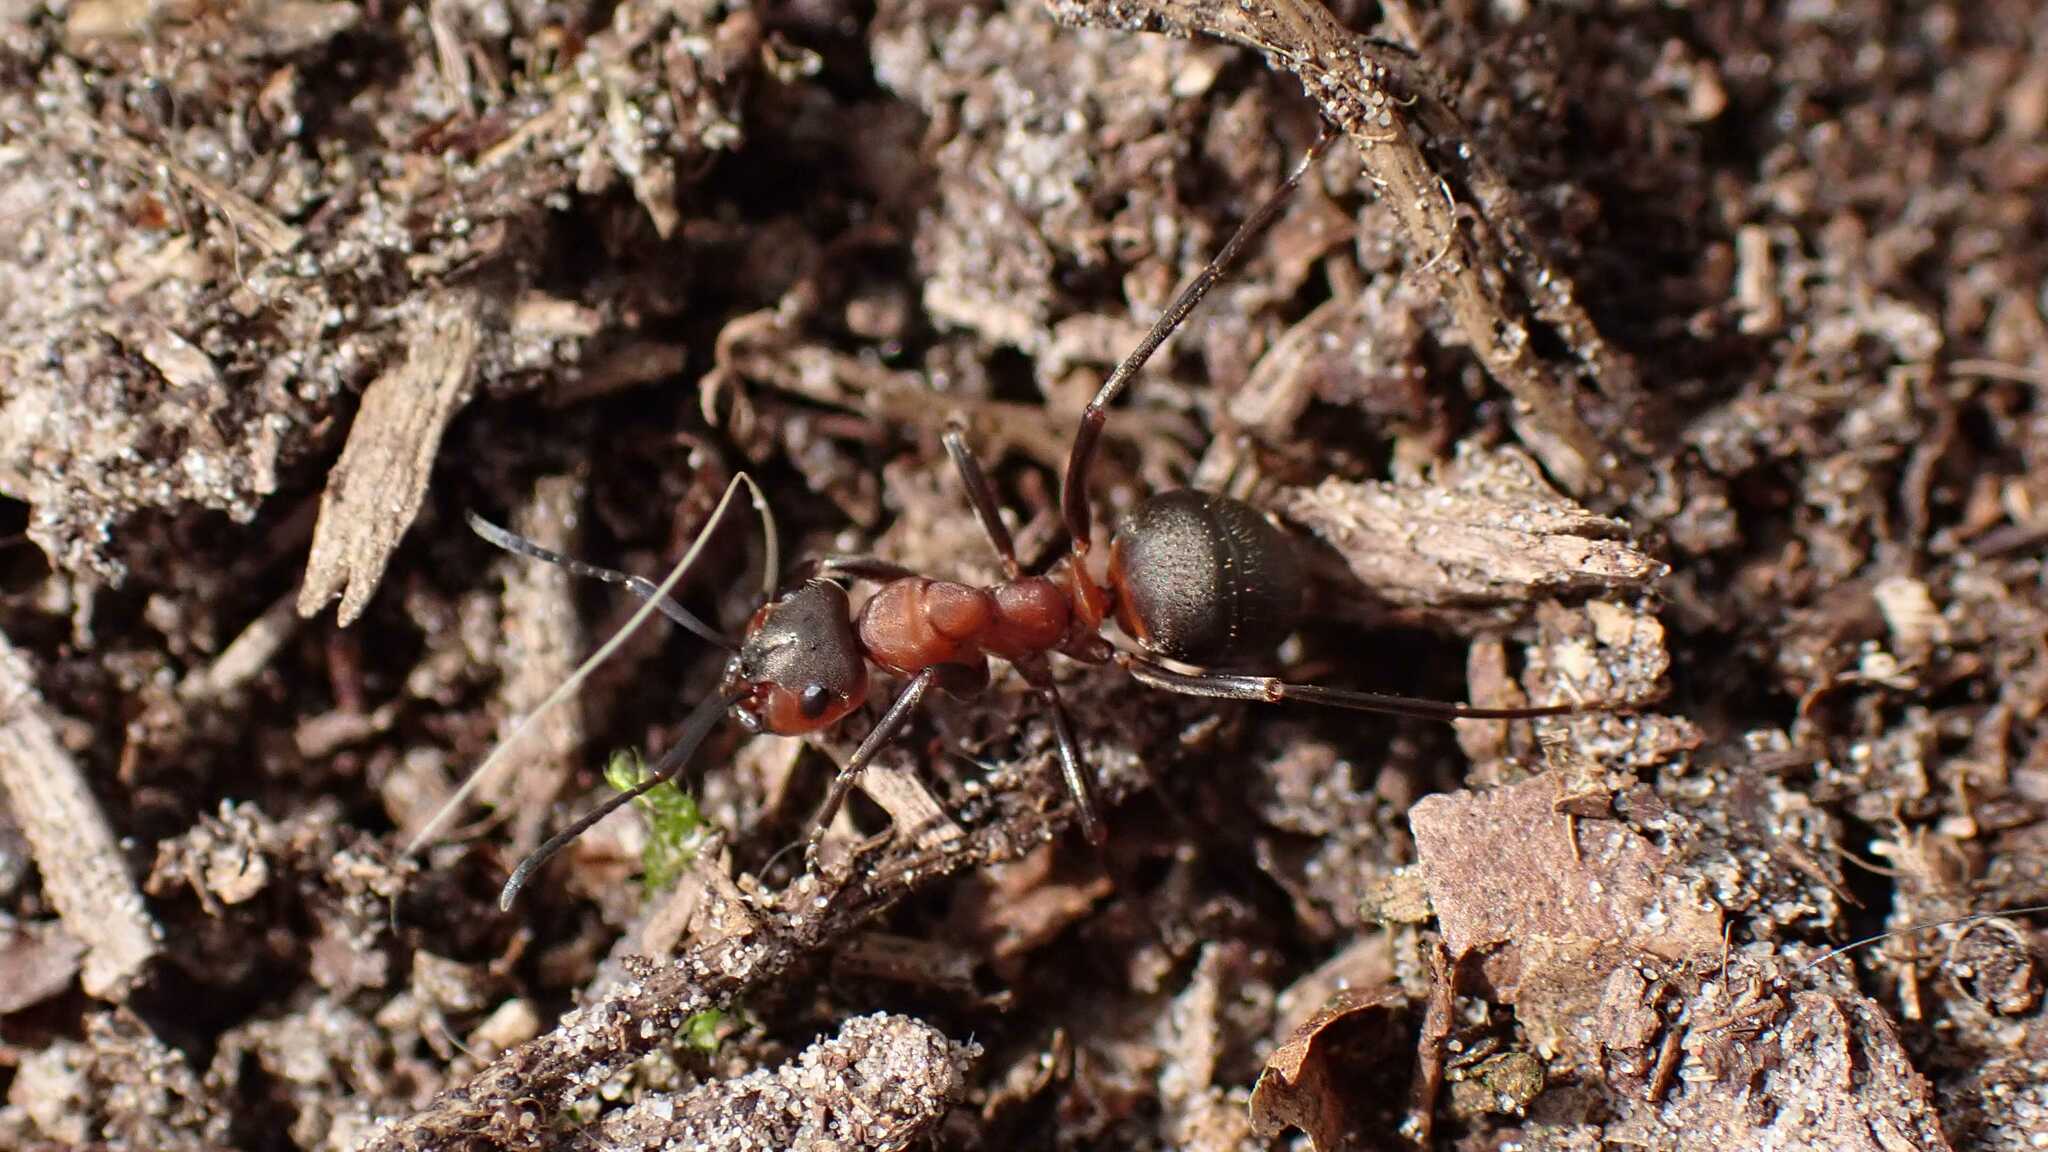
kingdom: Animalia
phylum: Arthropoda
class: Insecta
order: Hymenoptera
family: Formicidae
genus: Formica
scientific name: Formica
